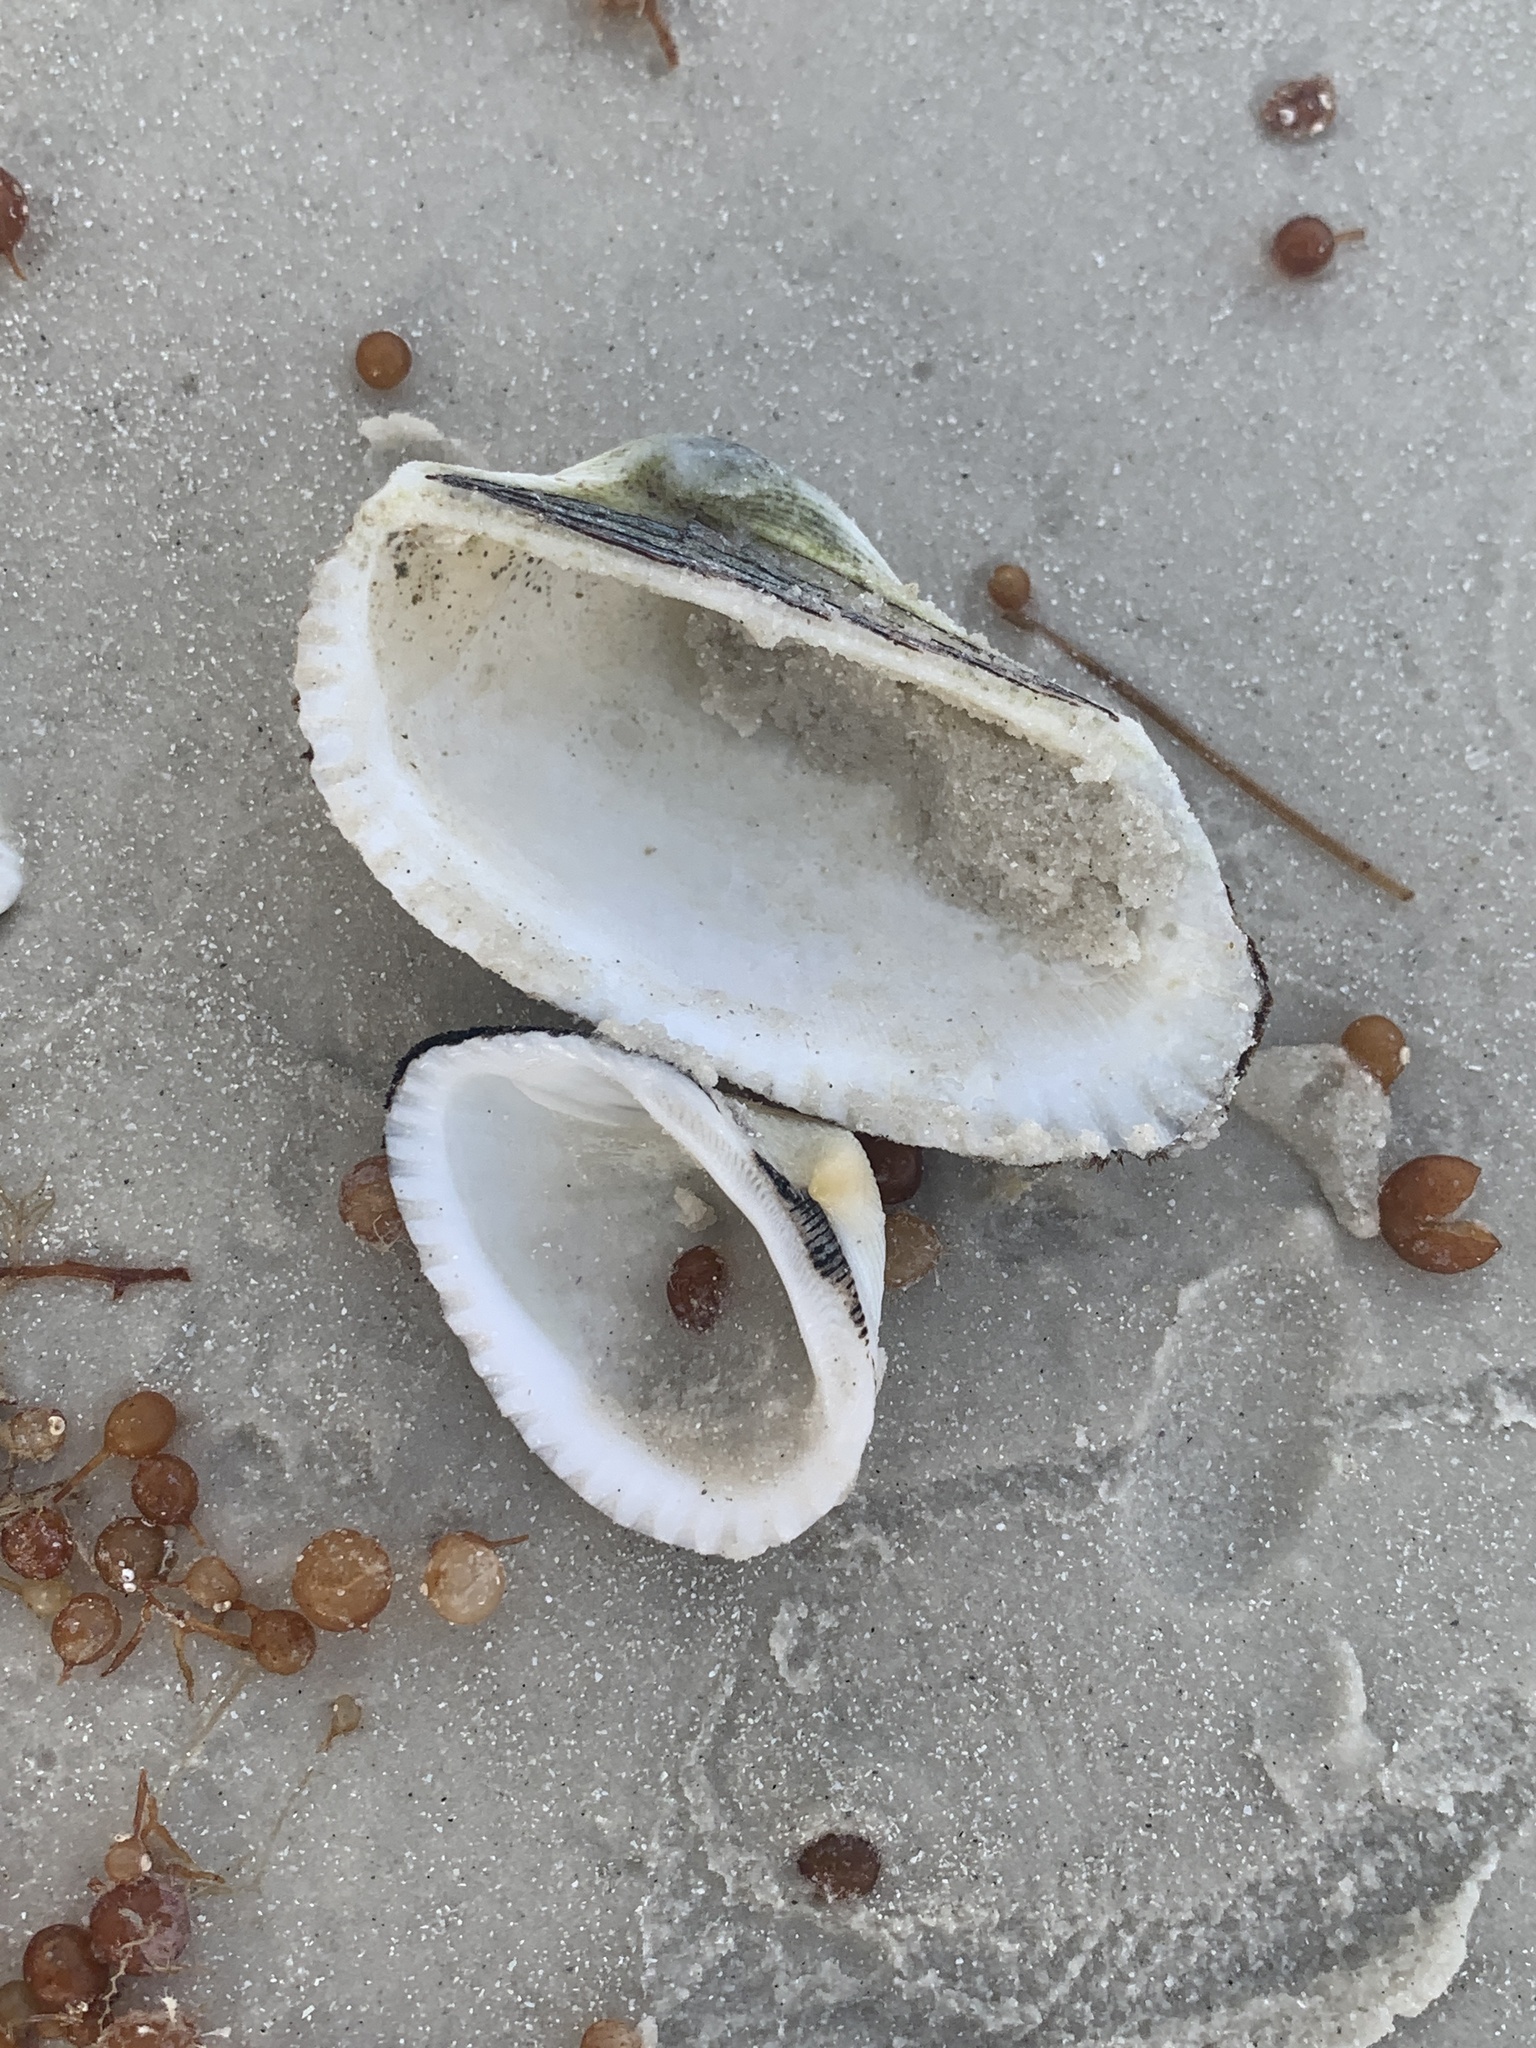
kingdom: Animalia
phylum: Mollusca
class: Bivalvia
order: Arcida
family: Arcidae
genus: Anadara
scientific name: Anadara secticostata
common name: Cut-ribbed ark
